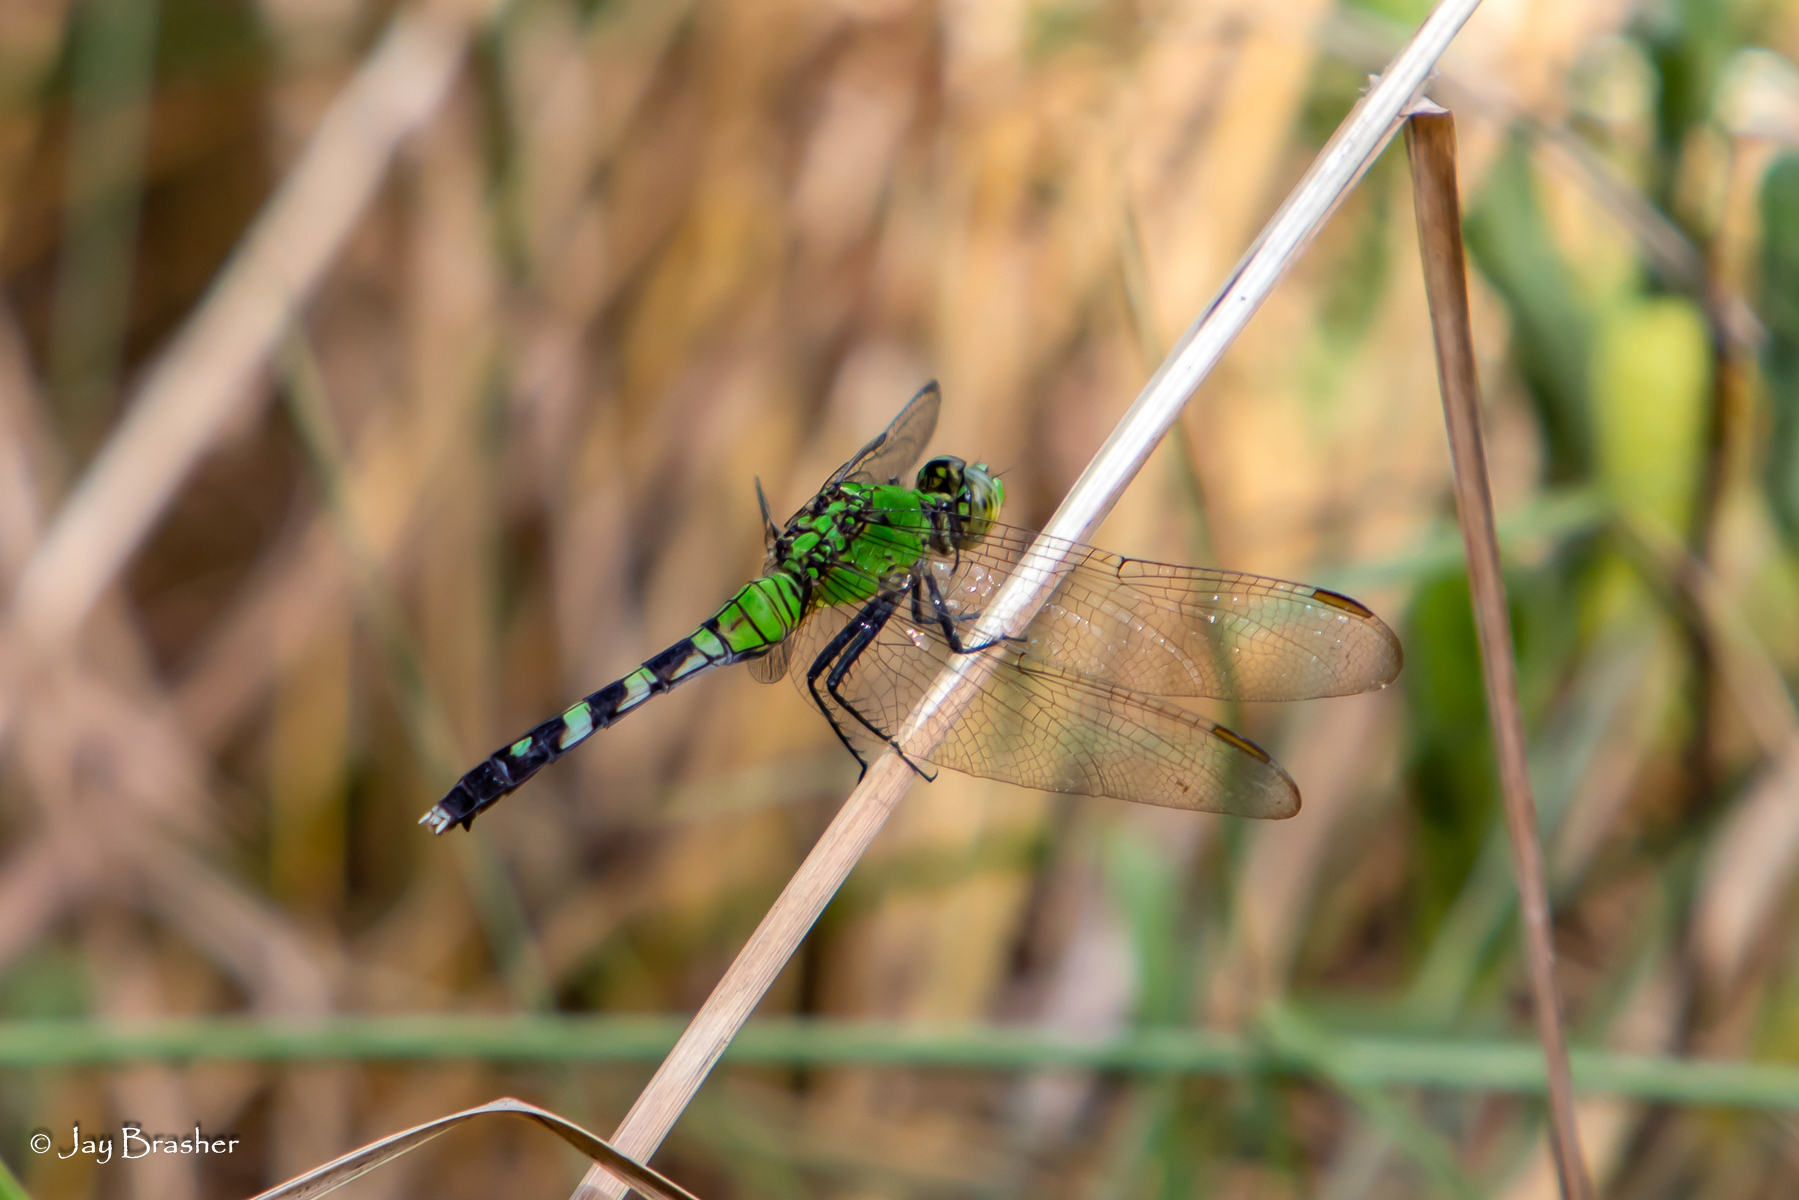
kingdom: Animalia
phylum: Arthropoda
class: Insecta
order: Odonata
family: Libellulidae
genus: Erythemis
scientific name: Erythemis simplicicollis
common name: Eastern pondhawk
